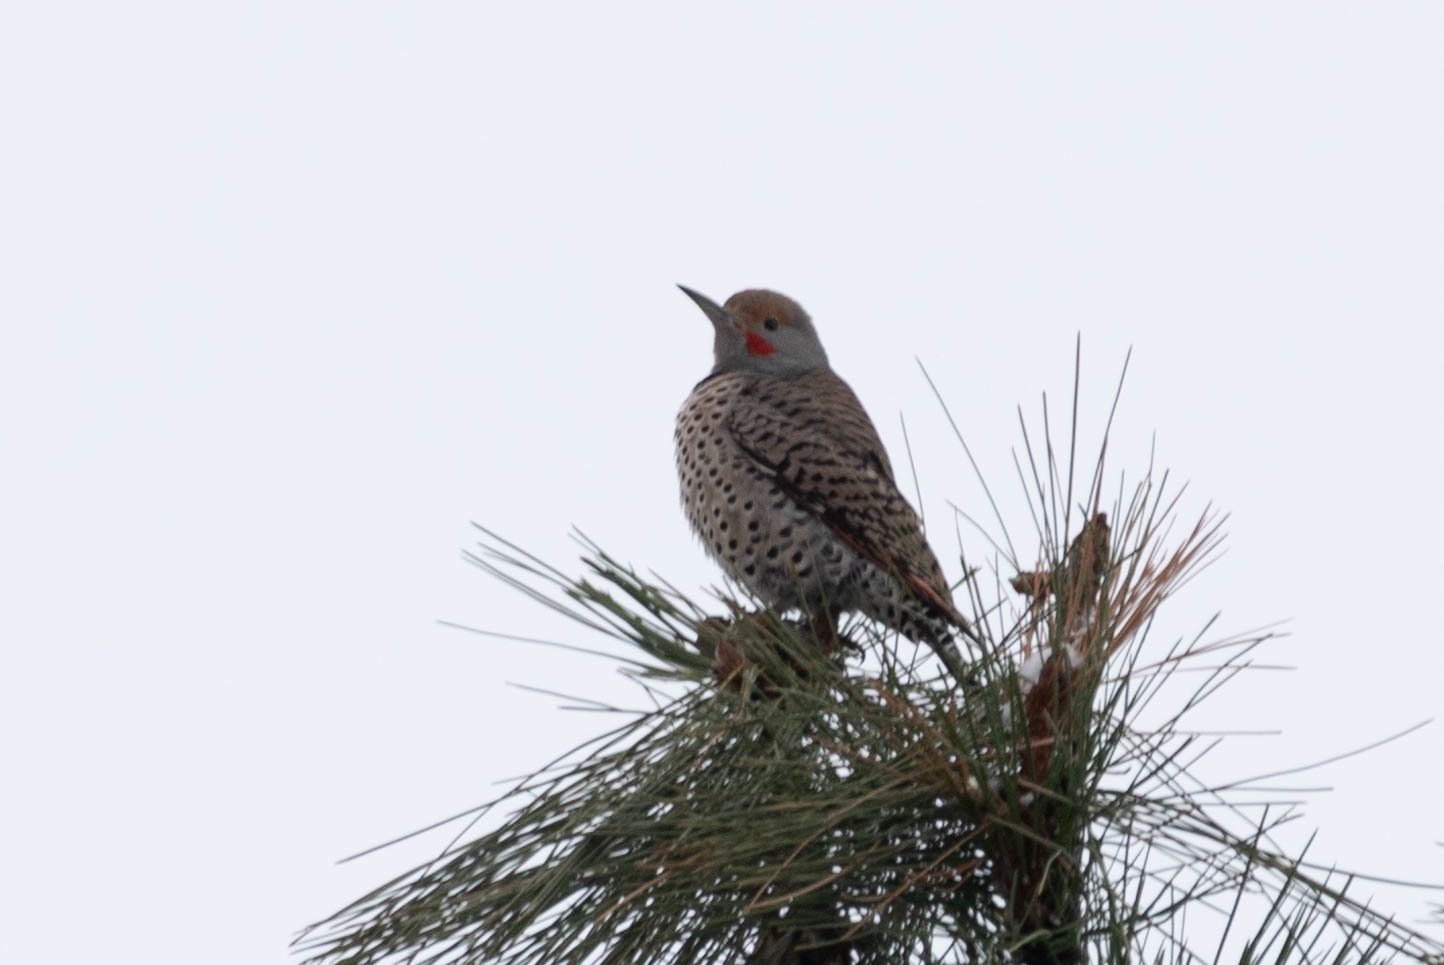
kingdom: Animalia
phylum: Chordata
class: Aves
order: Piciformes
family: Picidae
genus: Colaptes
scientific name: Colaptes auratus
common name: Northern flicker
